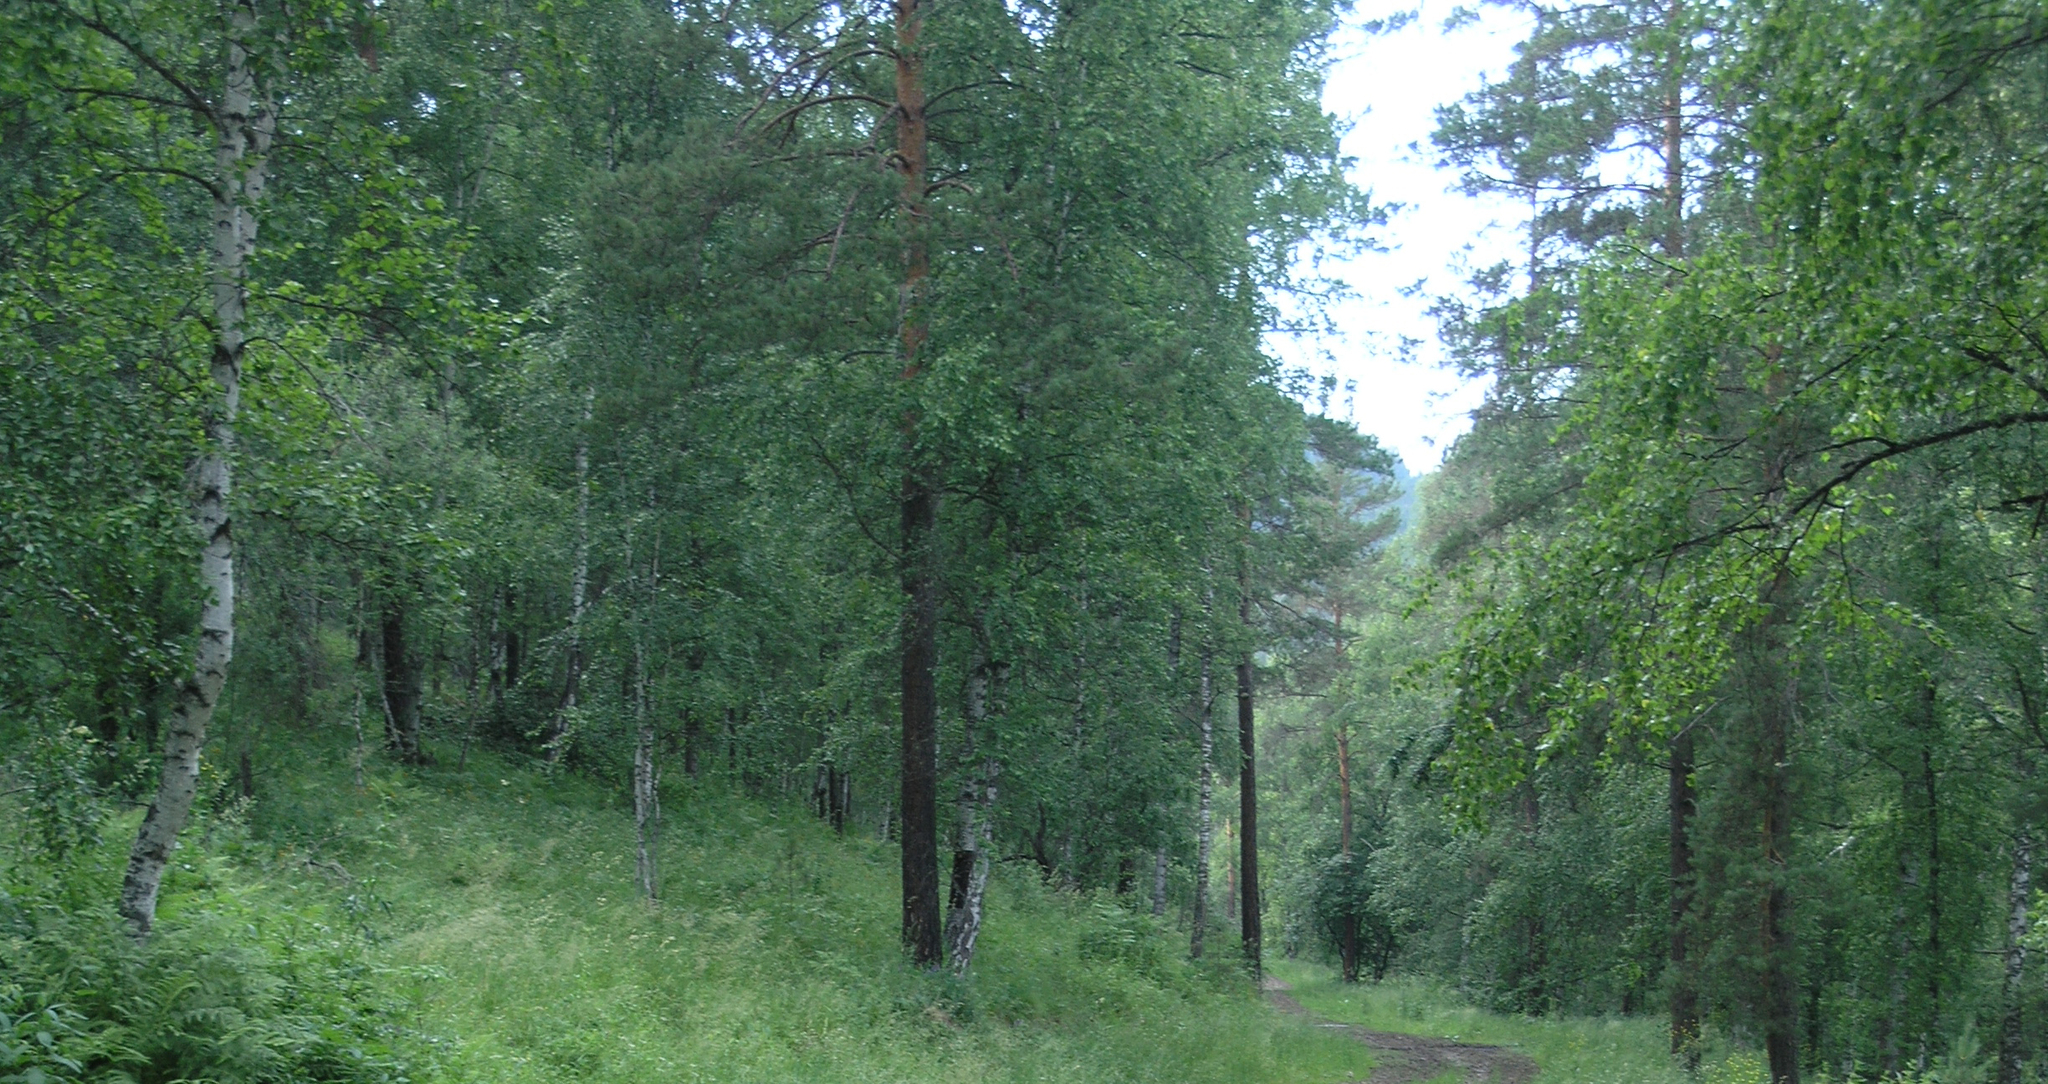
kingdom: Plantae
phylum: Tracheophyta
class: Pinopsida
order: Pinales
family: Pinaceae
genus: Pinus
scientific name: Pinus sylvestris
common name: Scots pine
